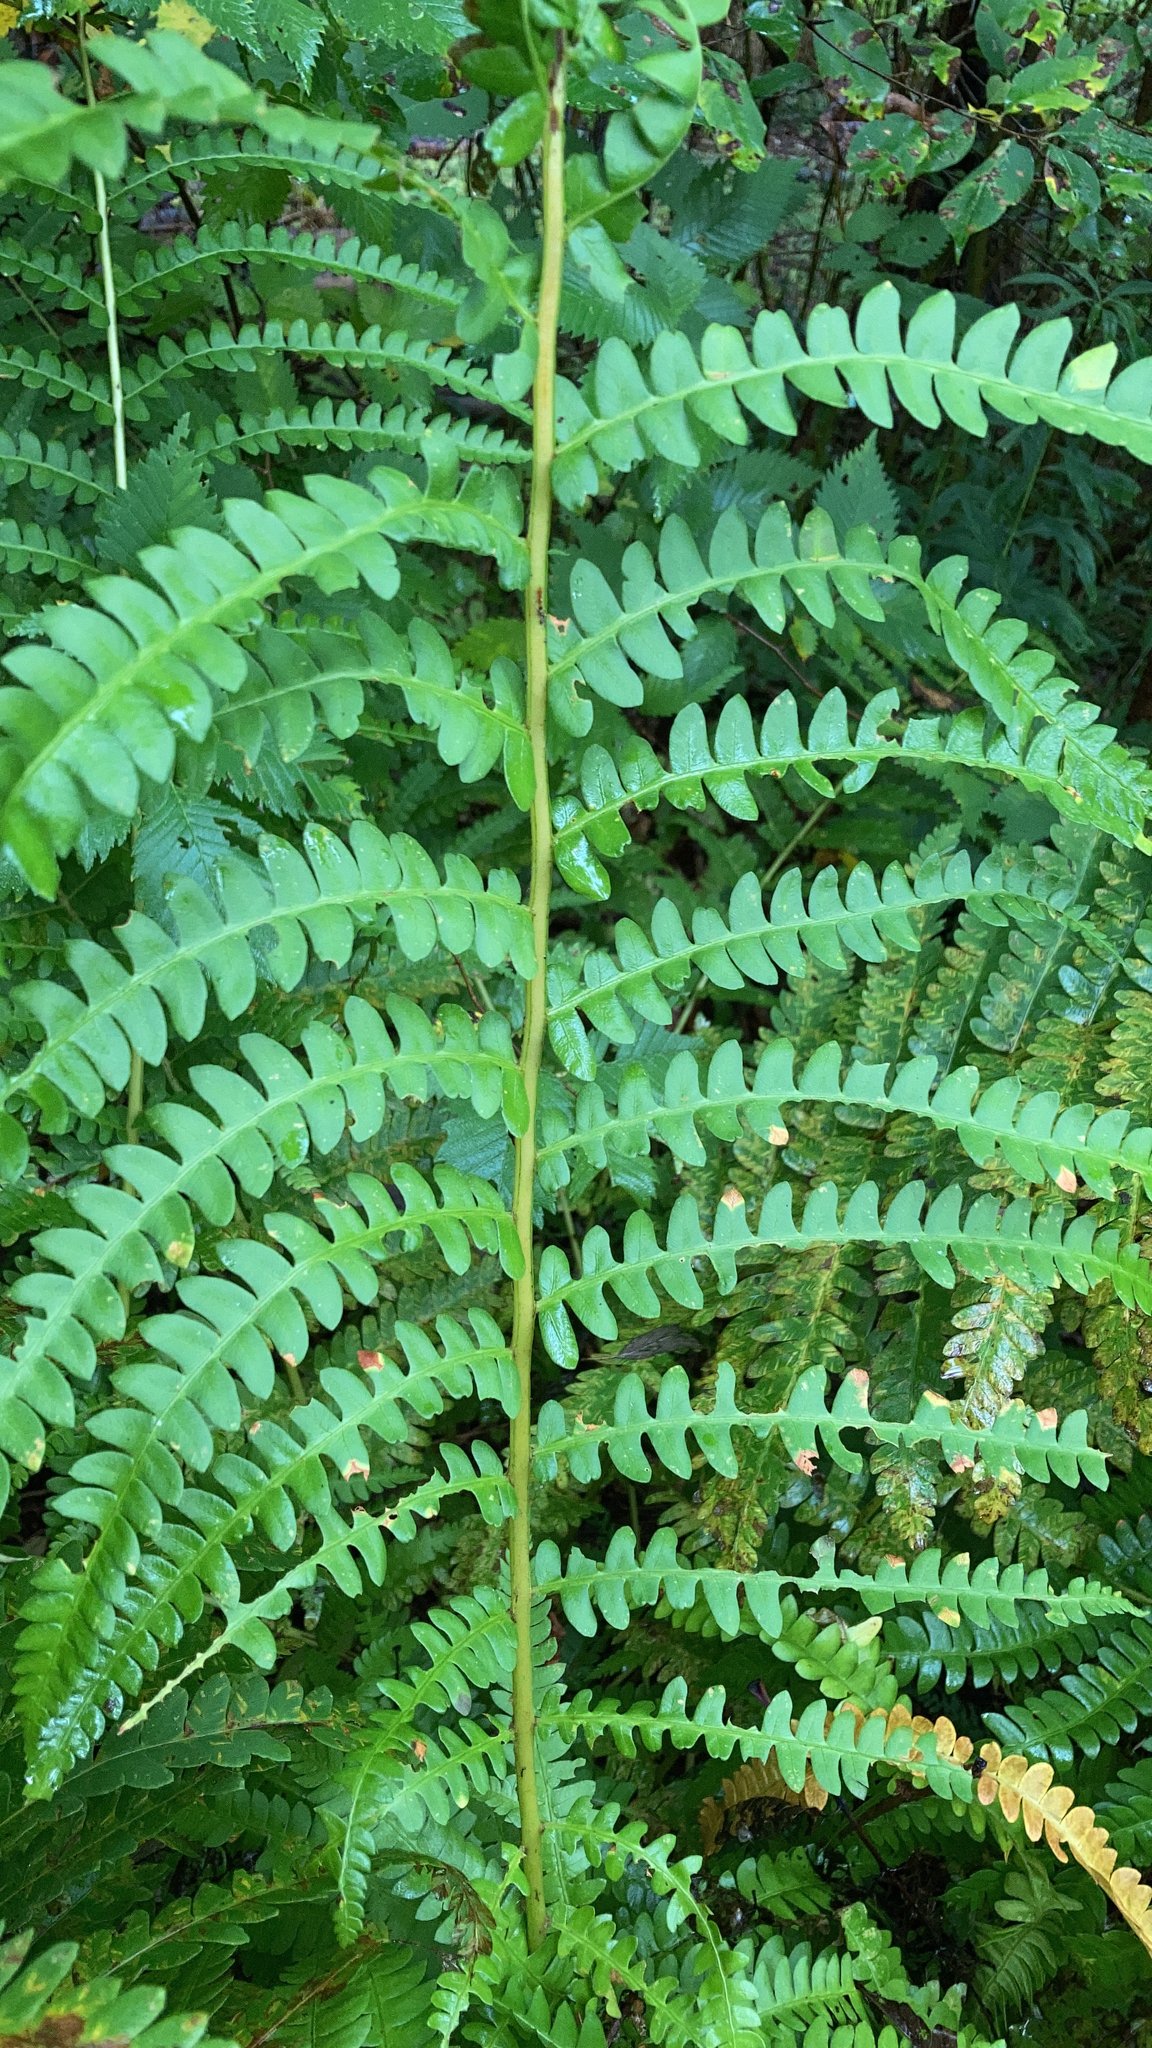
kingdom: Plantae
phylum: Tracheophyta
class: Polypodiopsida
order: Osmundales
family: Osmundaceae
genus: Osmundastrum
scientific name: Osmundastrum cinnamomeum
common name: Cinnamon fern
